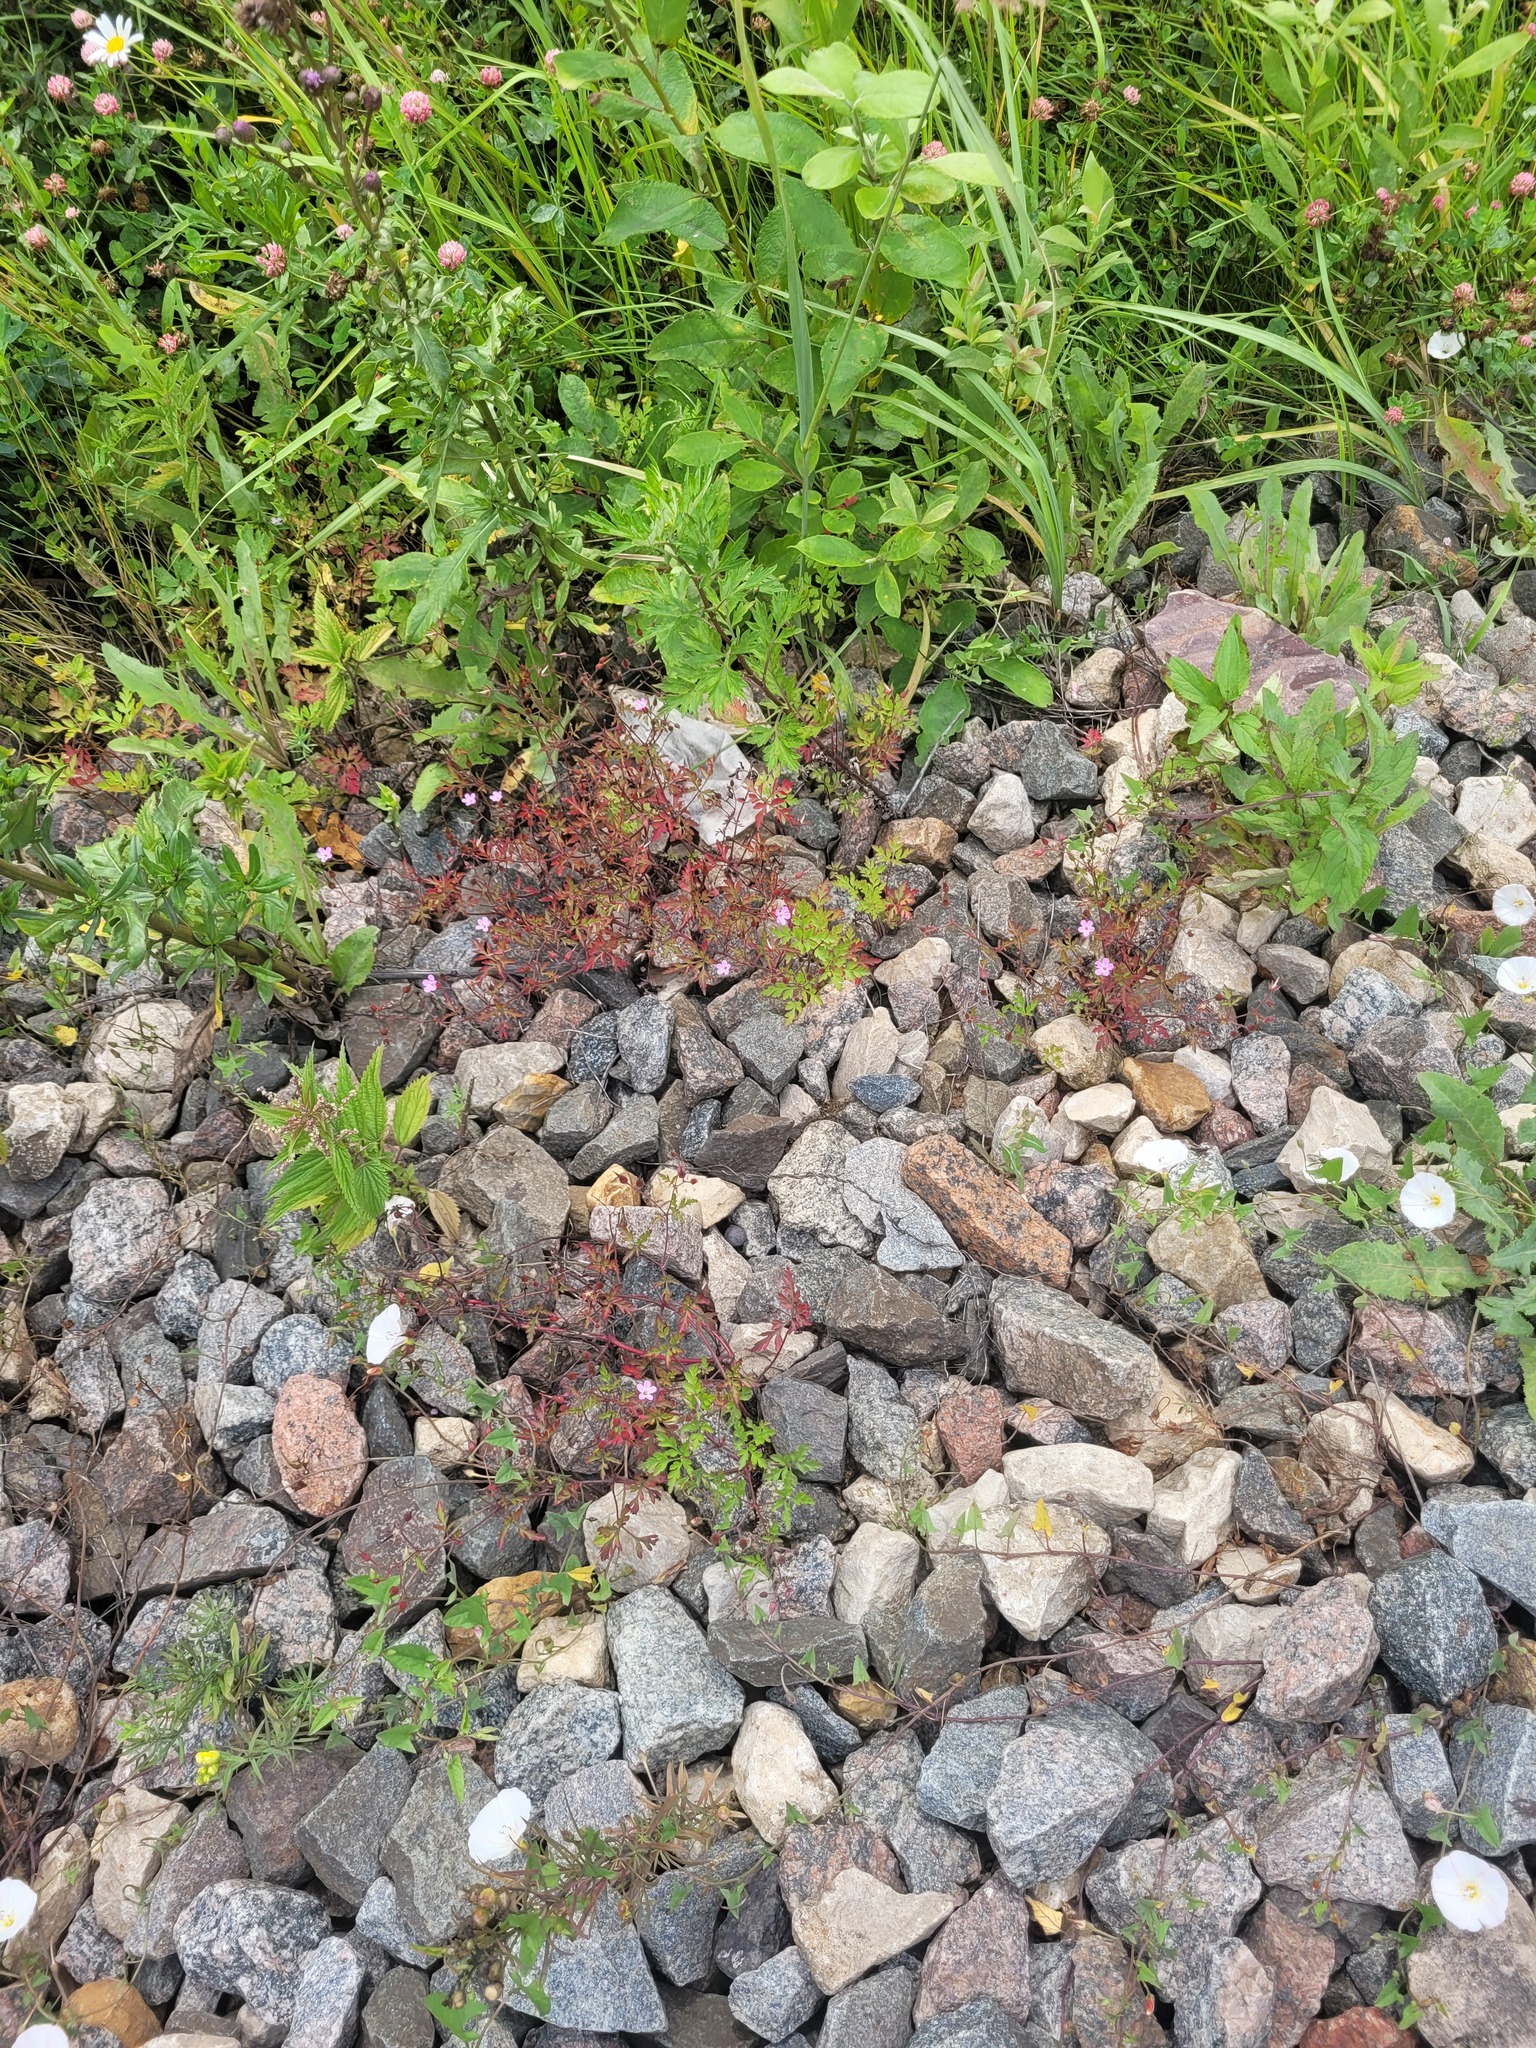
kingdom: Plantae
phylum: Tracheophyta
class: Magnoliopsida
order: Geraniales
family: Geraniaceae
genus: Geranium
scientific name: Geranium robertianum
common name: Herb-robert
